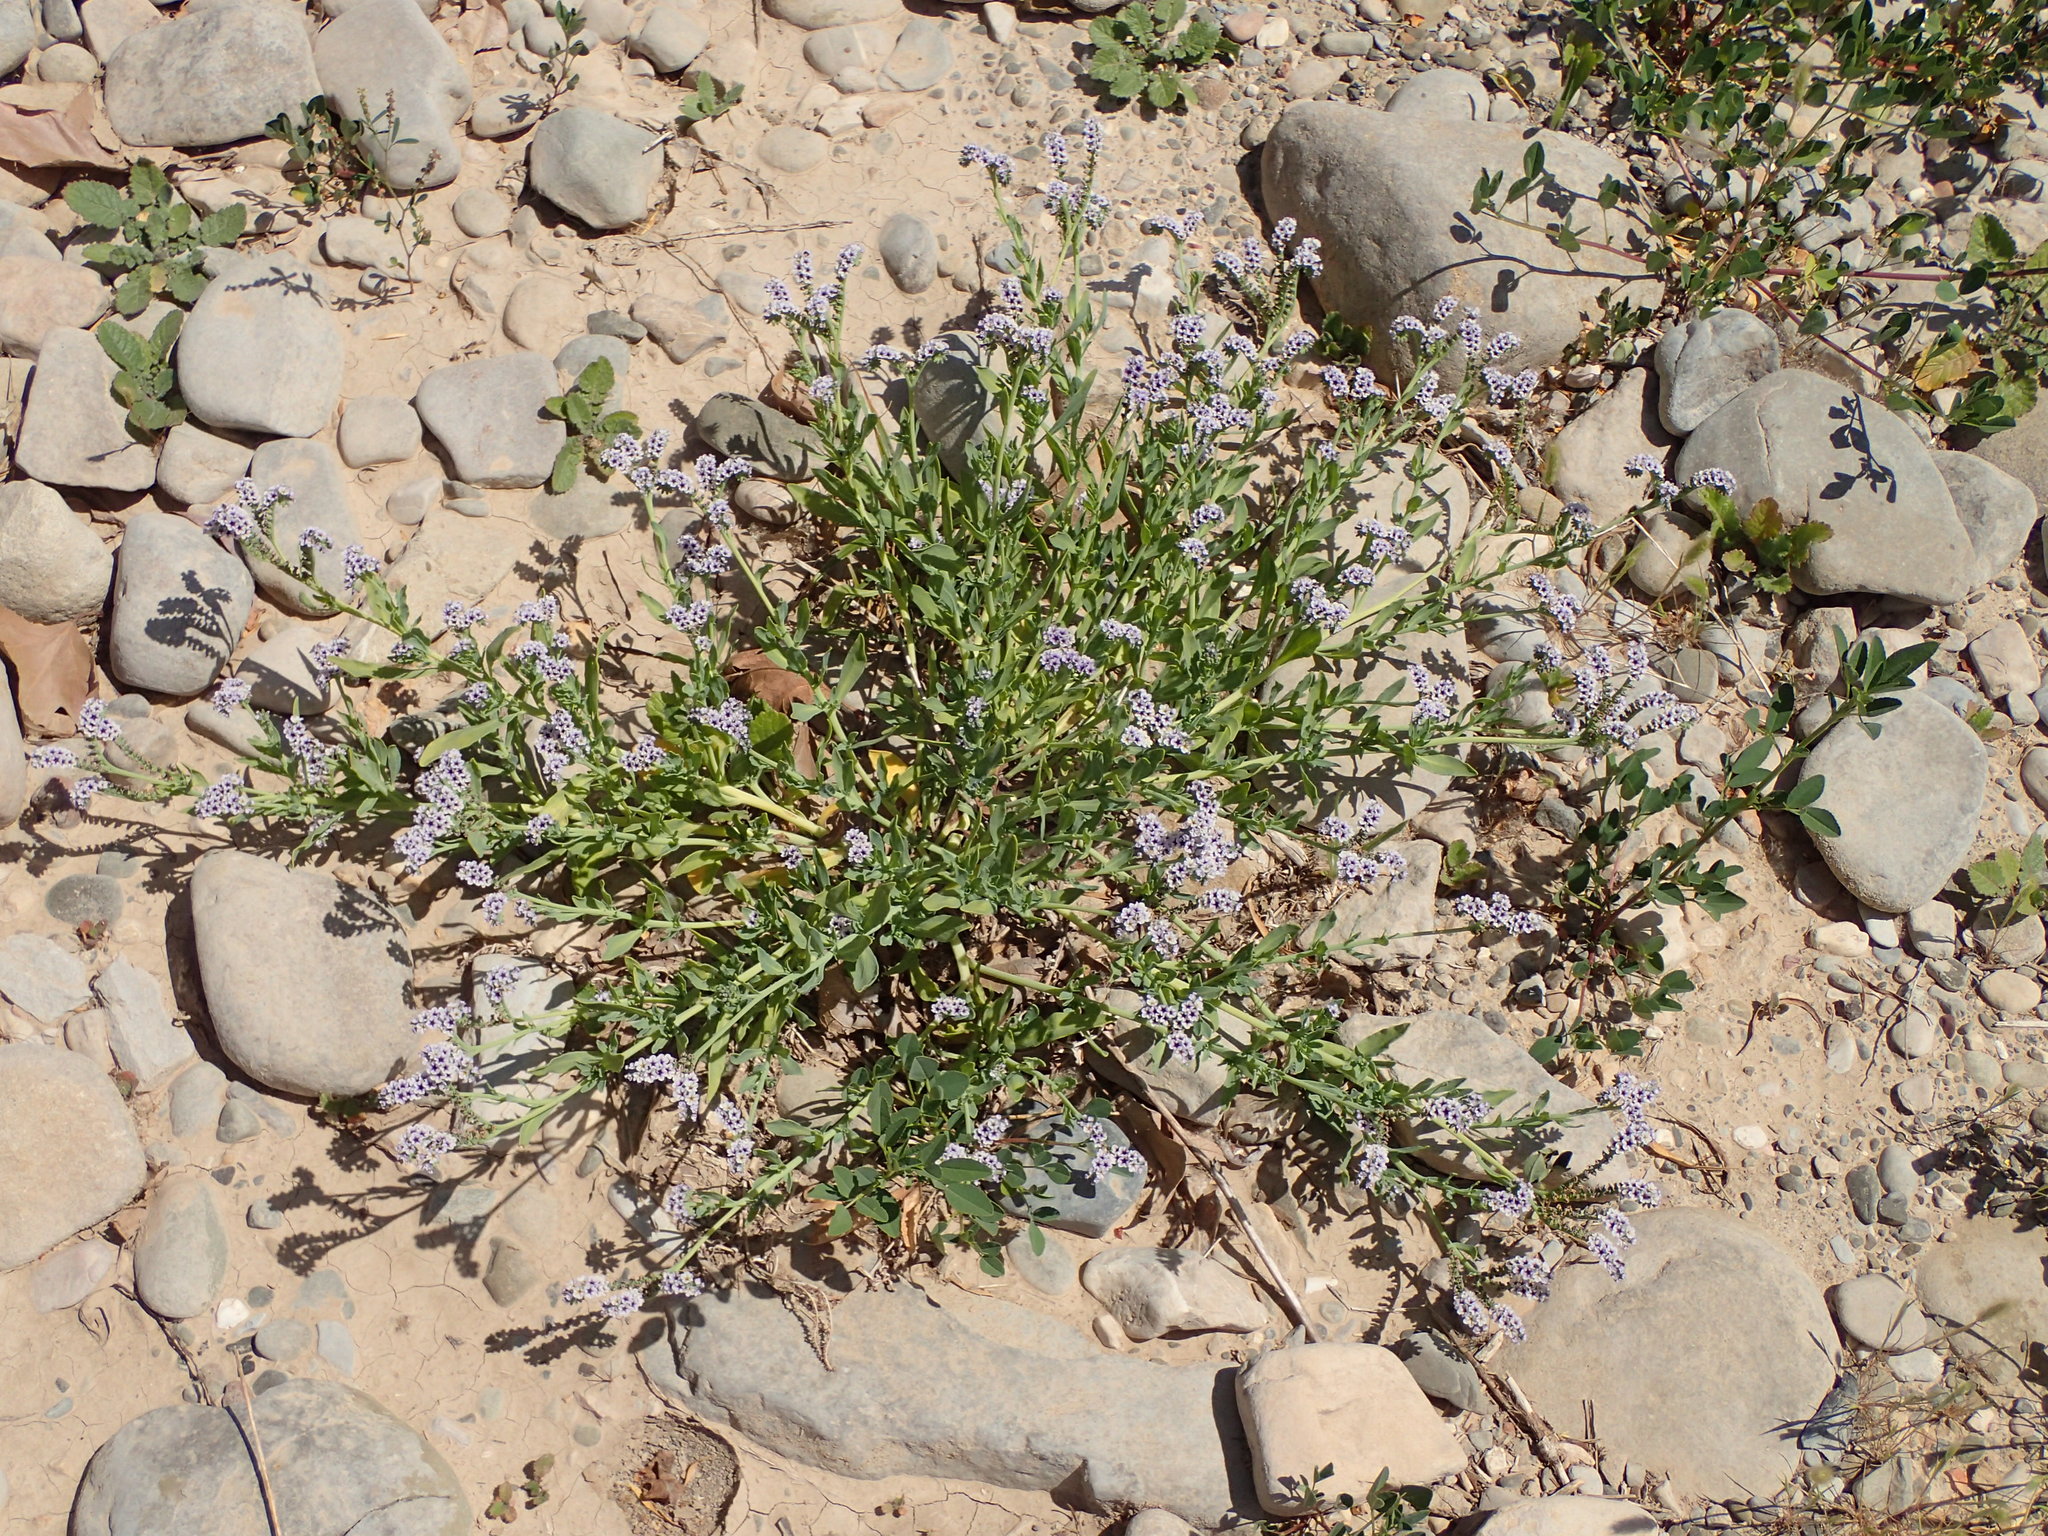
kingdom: Plantae
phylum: Tracheophyta
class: Magnoliopsida
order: Boraginales
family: Heliotropiaceae
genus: Heliotropium
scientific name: Heliotropium curassavicum
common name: Seaside heliotrope
